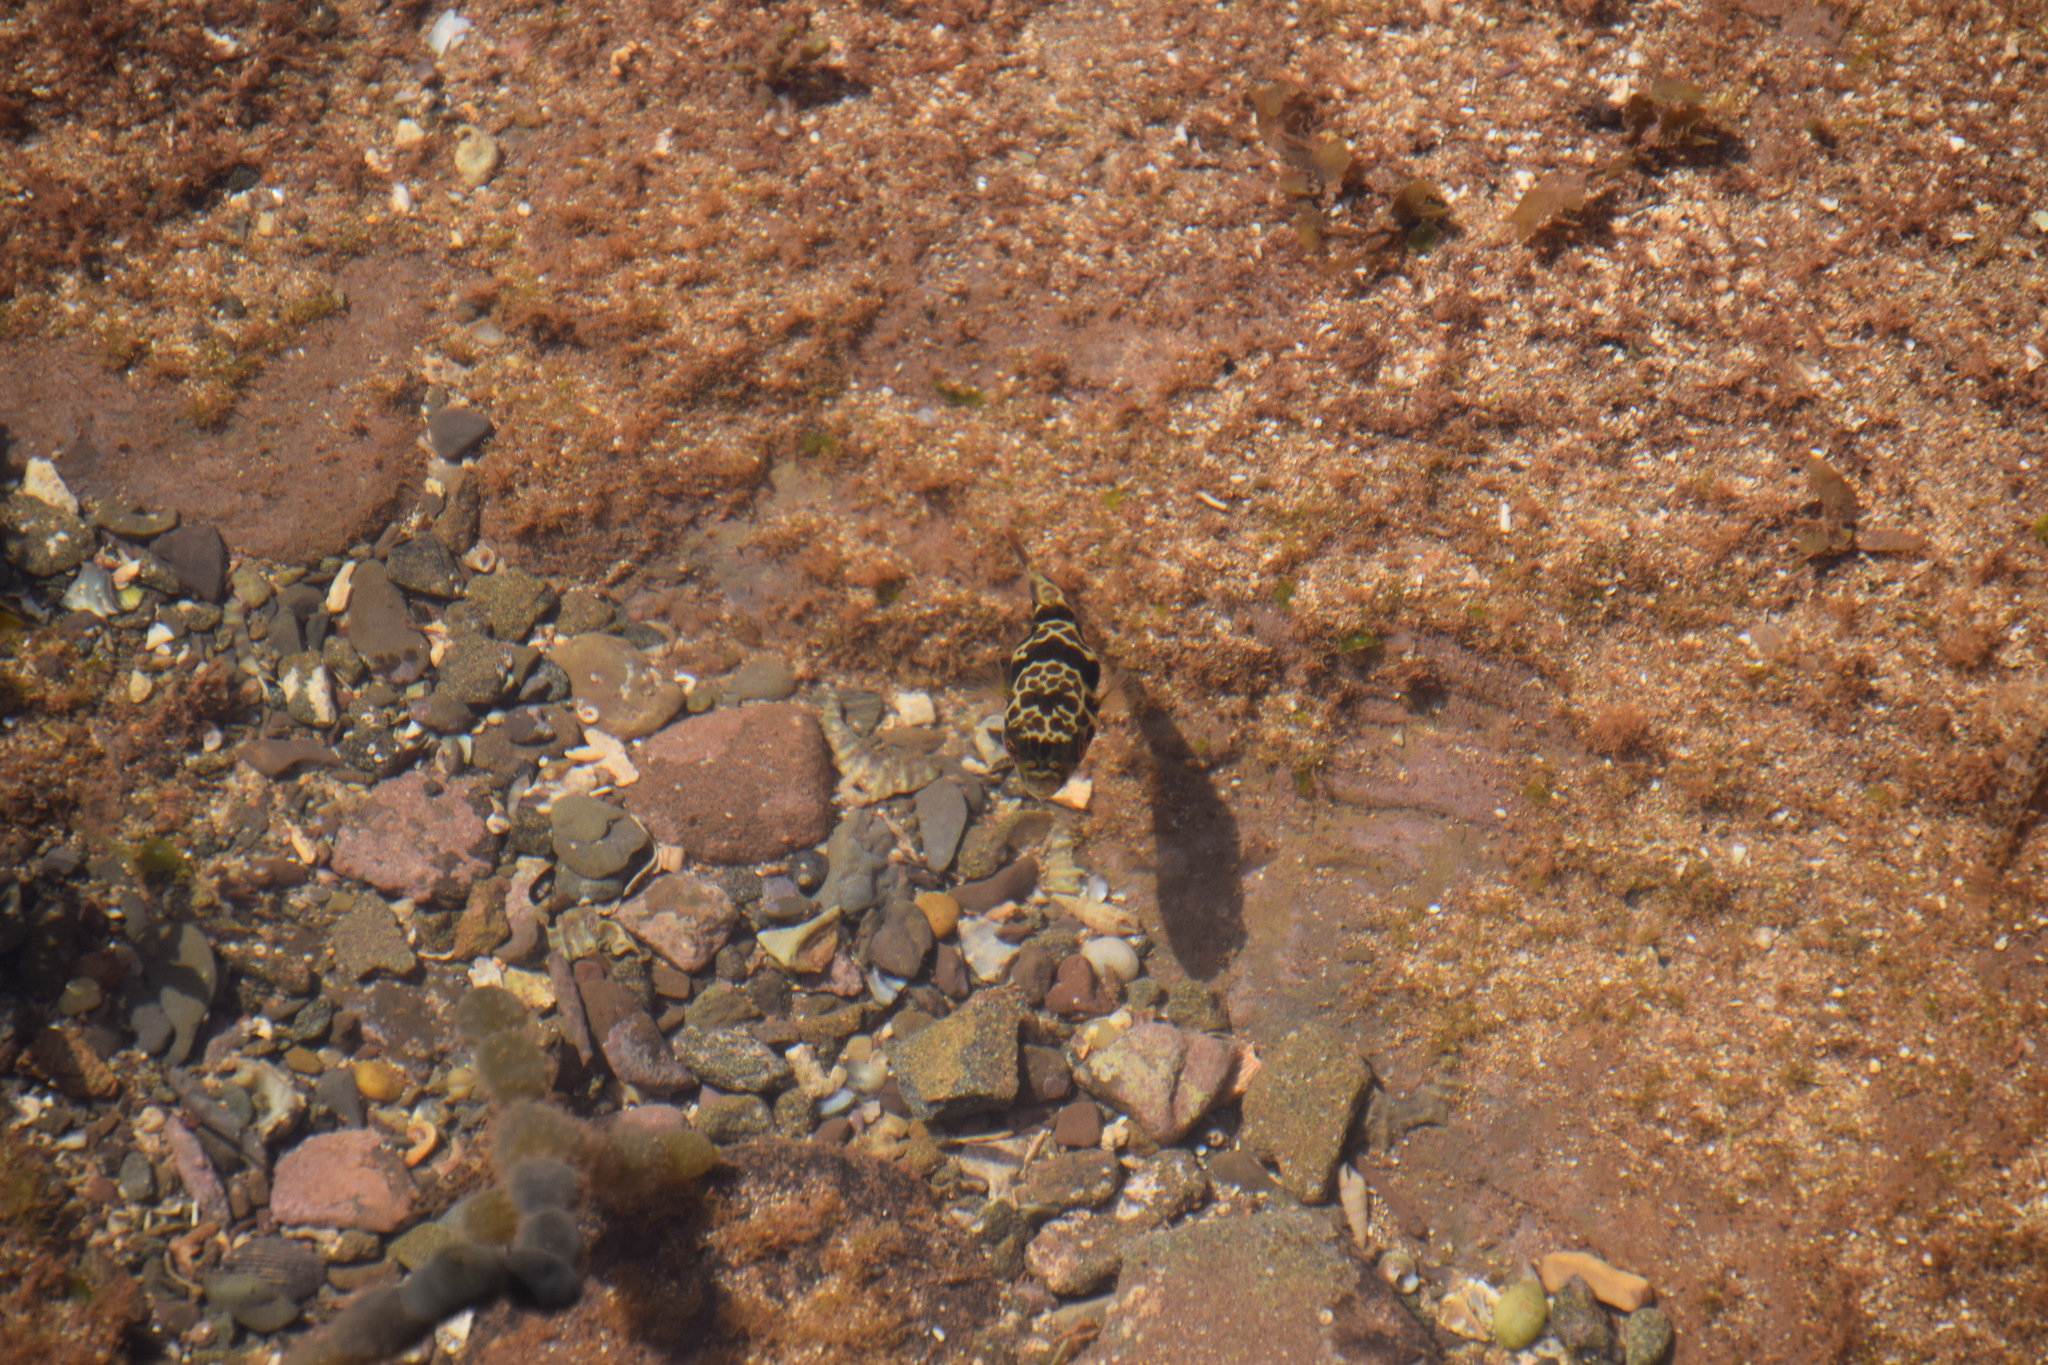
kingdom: Animalia
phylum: Chordata
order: Tetraodontiformes
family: Tetraodontidae
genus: Tetractenos
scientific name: Tetractenos glaber
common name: Smooth toadfish
